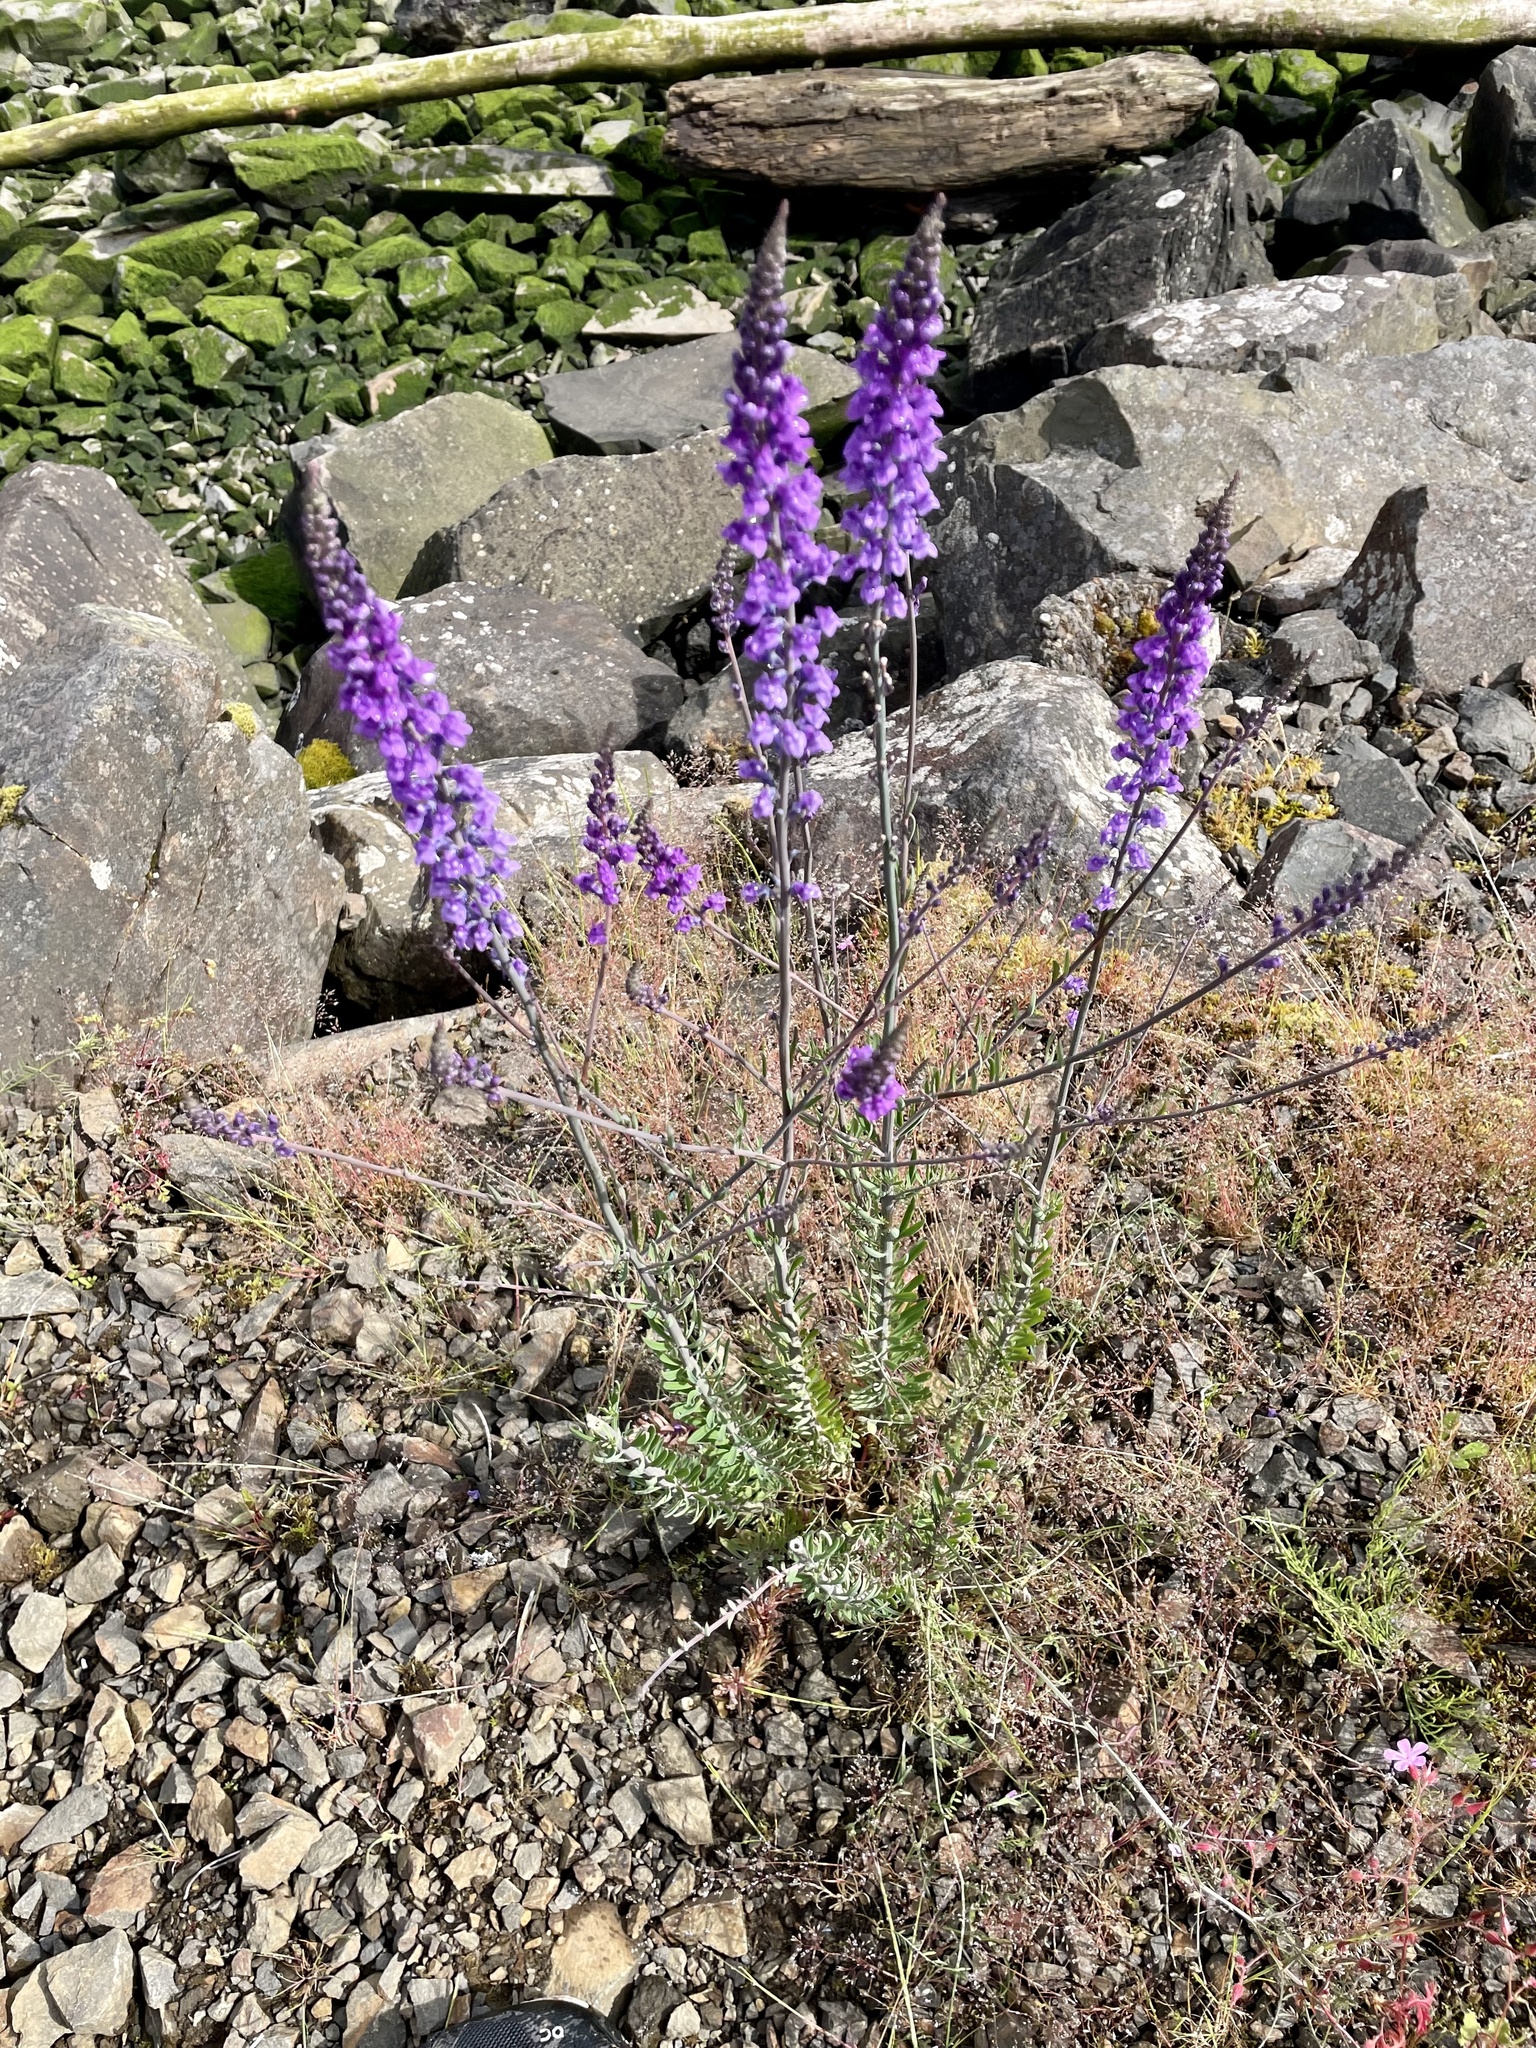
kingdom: Plantae
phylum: Tracheophyta
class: Magnoliopsida
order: Lamiales
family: Plantaginaceae
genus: Linaria
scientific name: Linaria purpurea
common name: Purple toadflax
